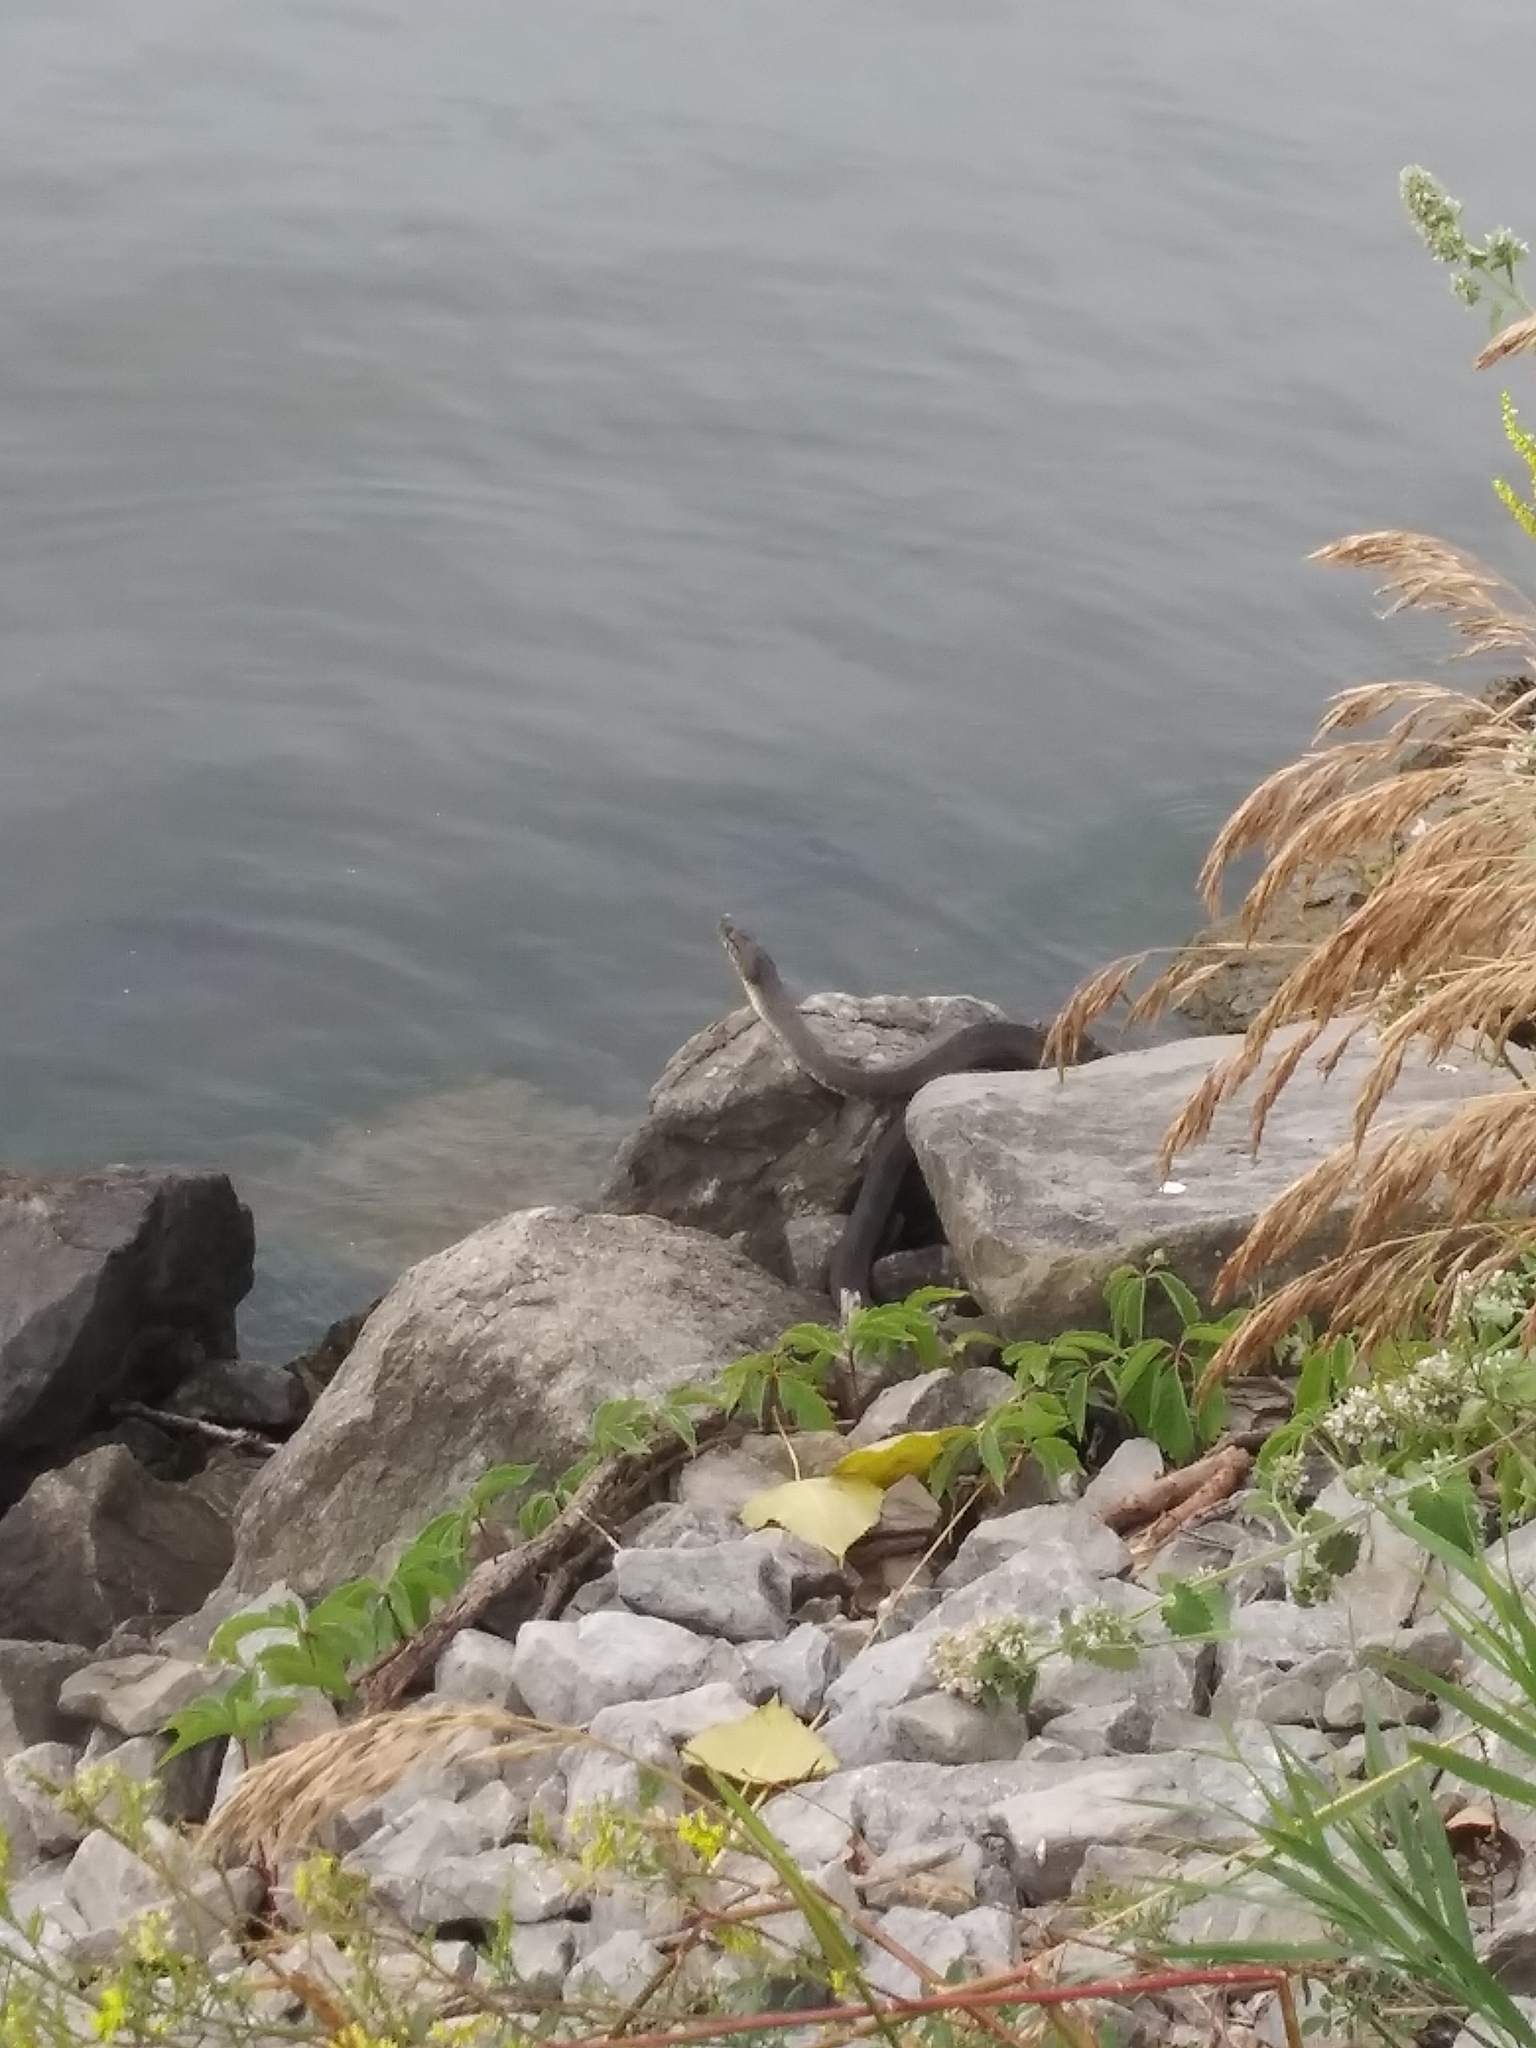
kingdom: Animalia
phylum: Chordata
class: Squamata
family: Colubridae
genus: Nerodia
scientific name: Nerodia sipedon
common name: Northern water snake
